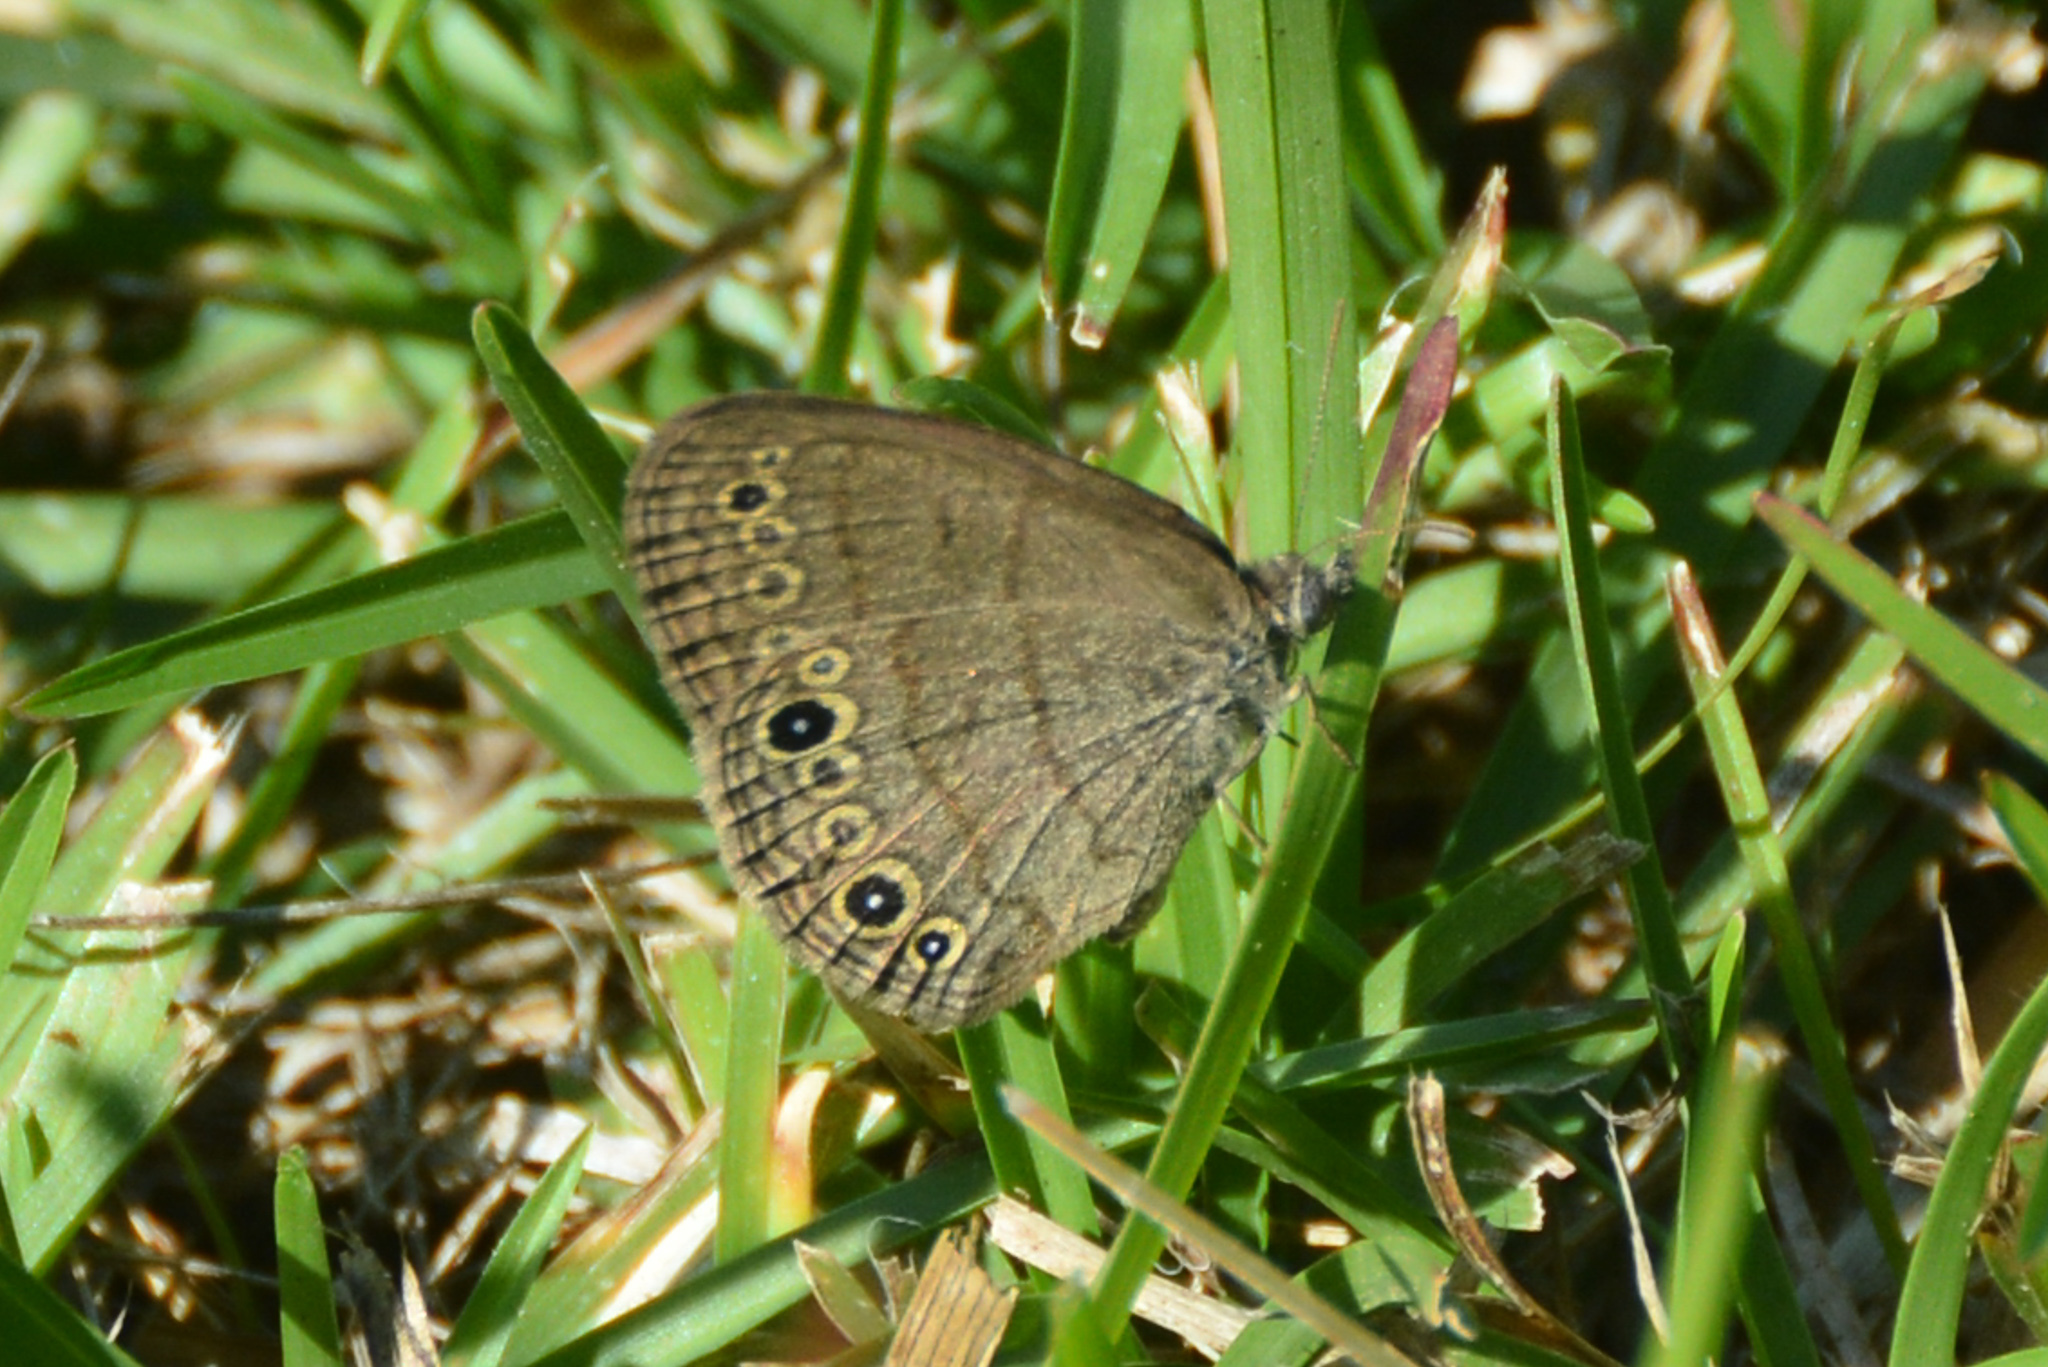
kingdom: Animalia
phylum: Arthropoda
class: Insecta
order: Lepidoptera
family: Nymphalidae
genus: Hermeuptychia
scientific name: Hermeuptychia hermes
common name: Hermes satyr
